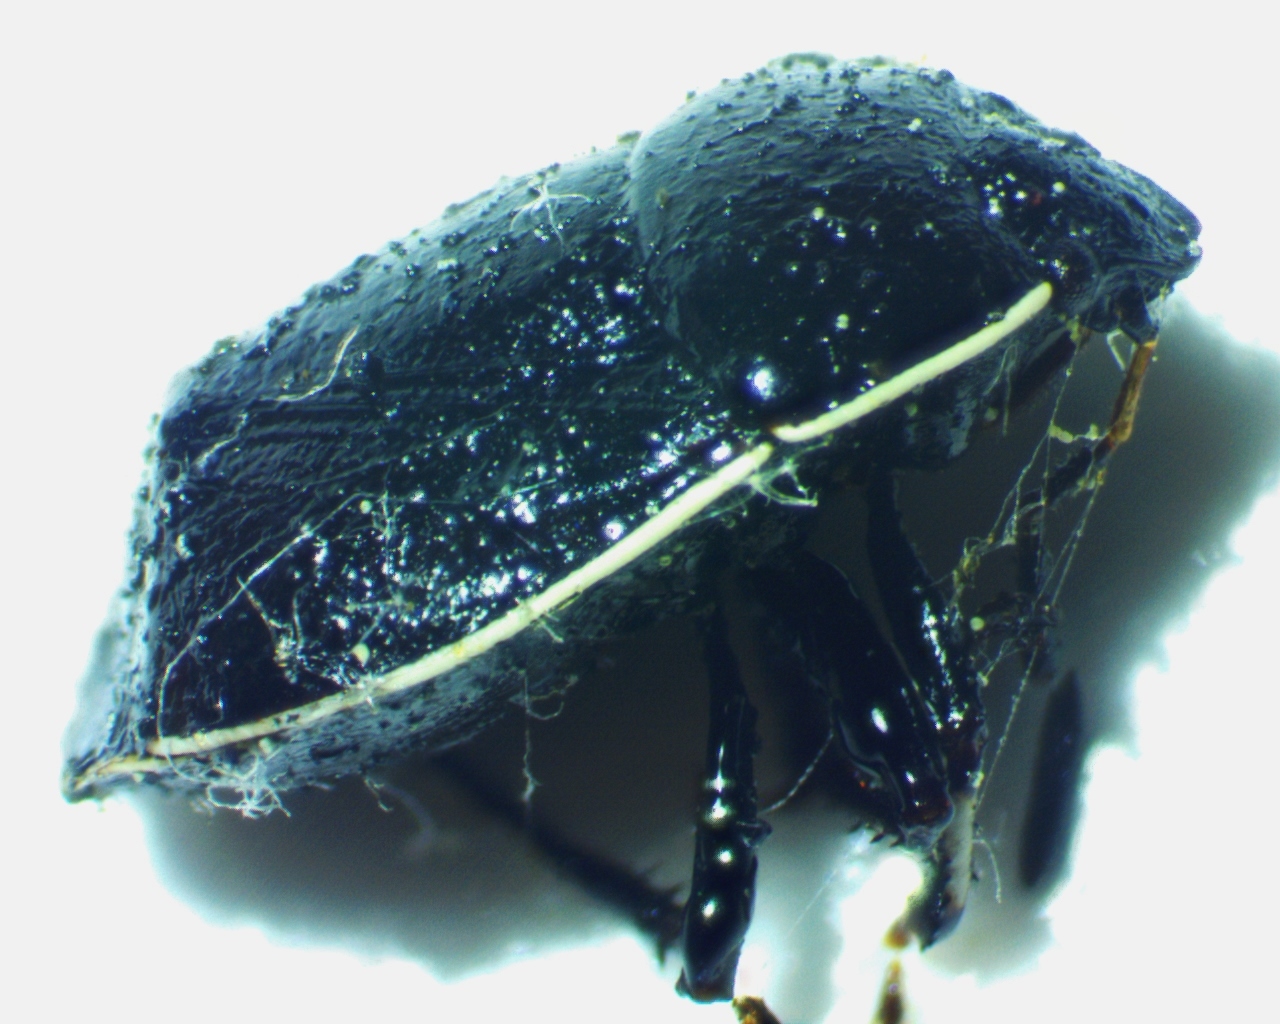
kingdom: Animalia
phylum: Arthropoda
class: Insecta
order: Hemiptera
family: Cydnidae
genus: Sehirus
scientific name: Sehirus cinctus
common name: White-margined burrower bug
